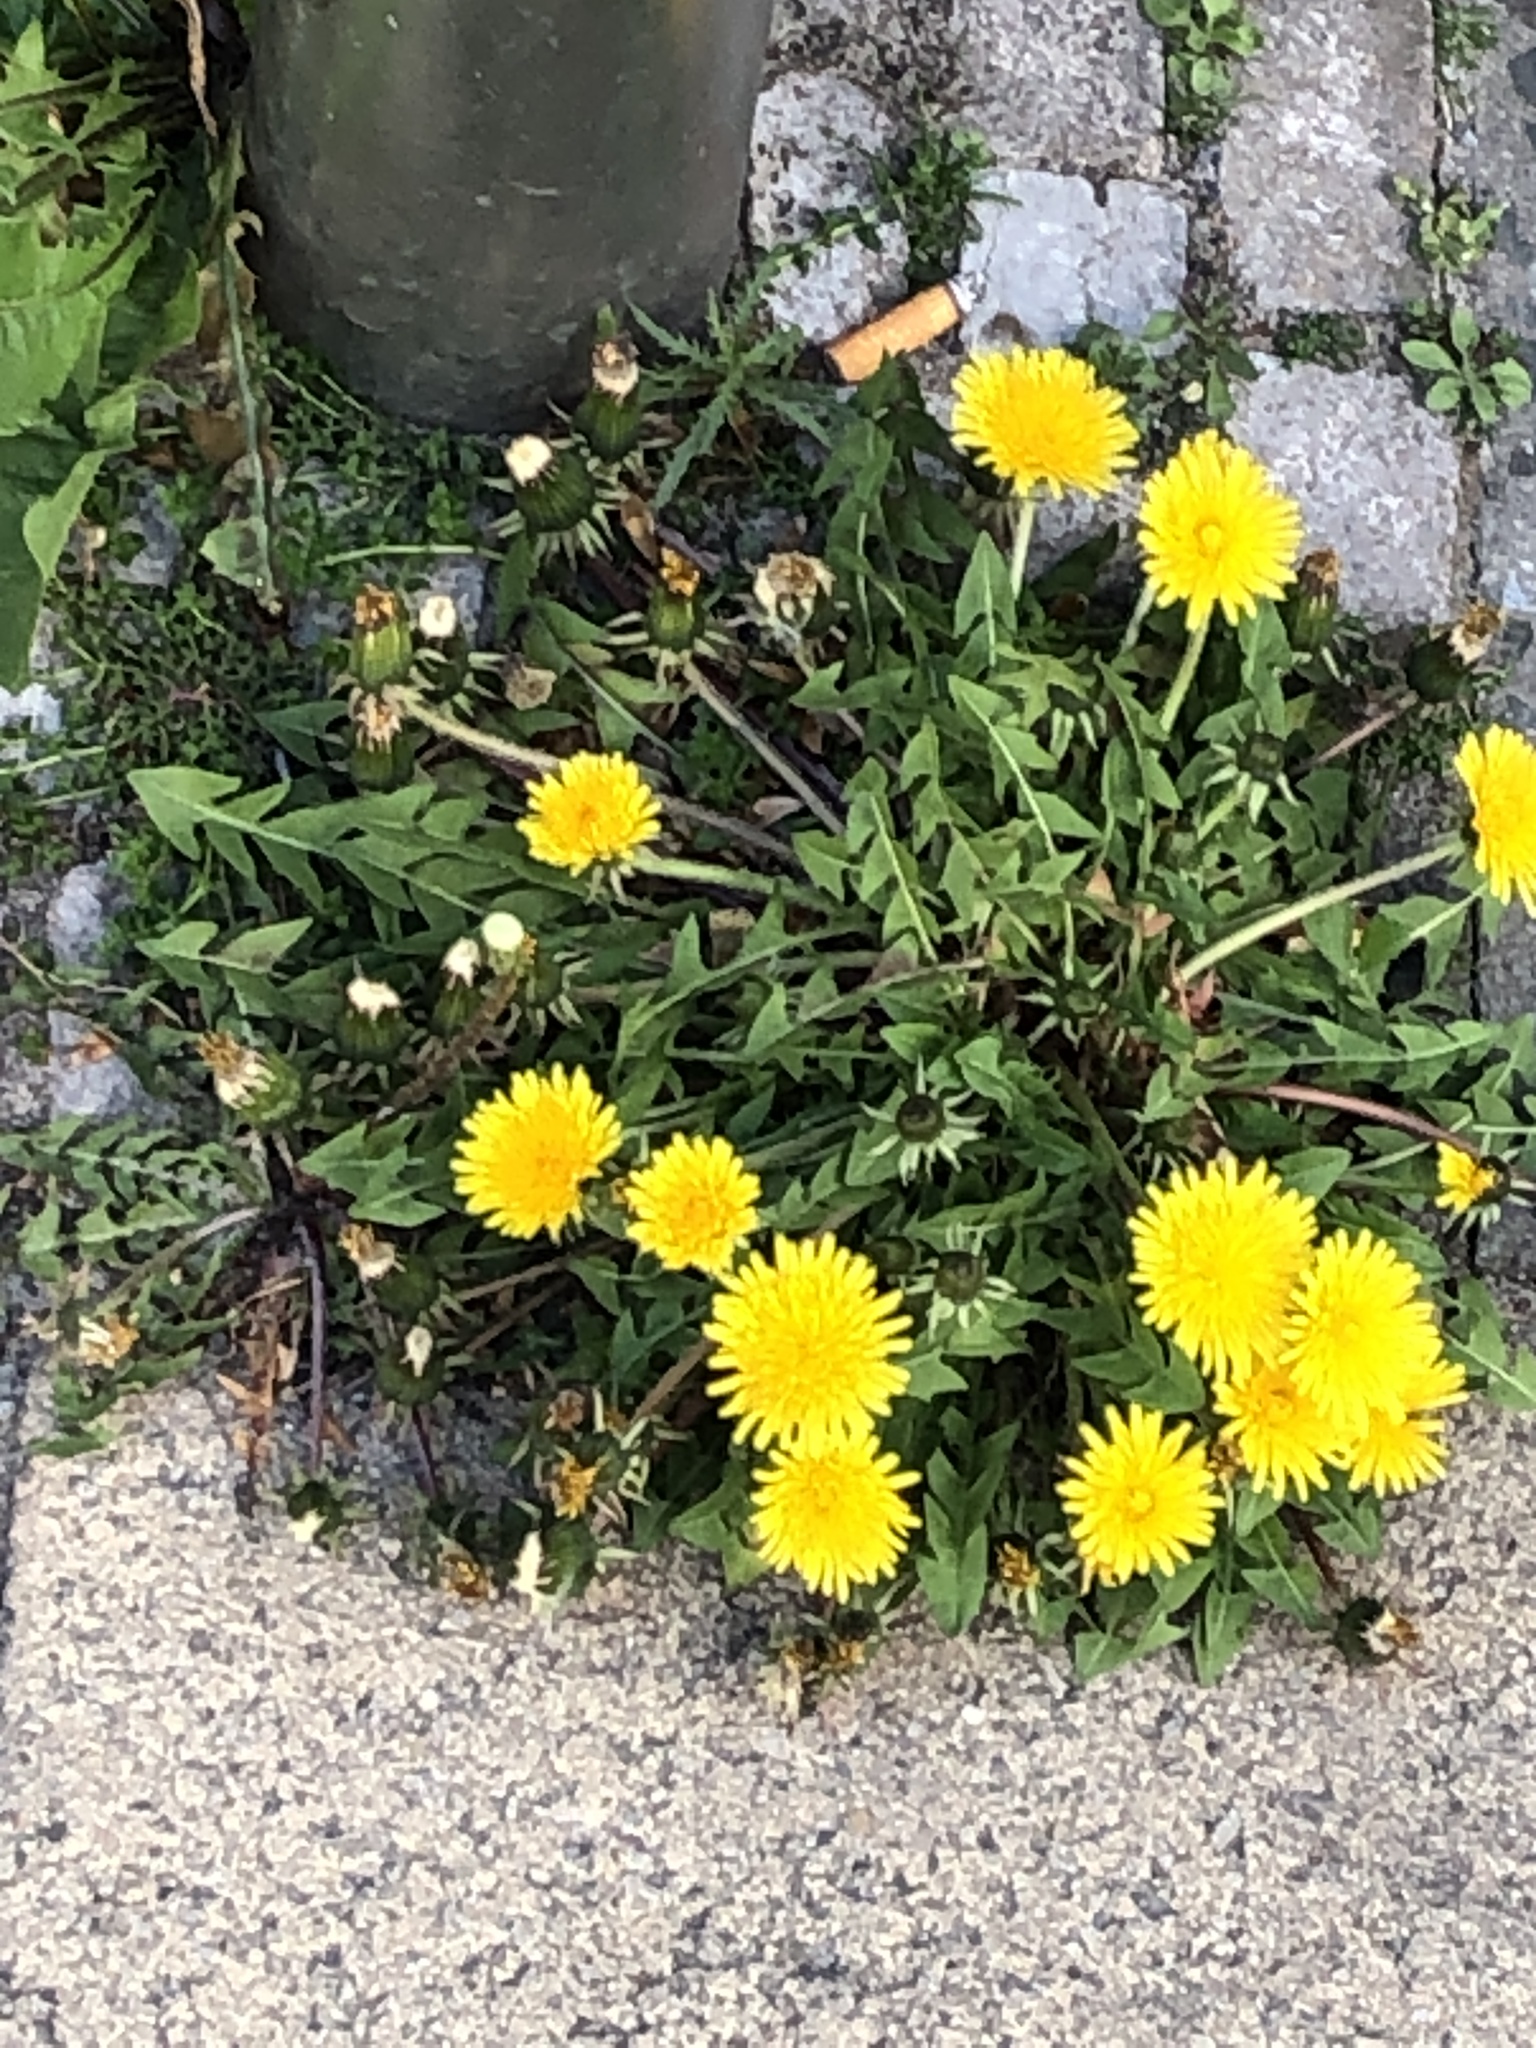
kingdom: Plantae
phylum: Tracheophyta
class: Magnoliopsida
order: Asterales
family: Asteraceae
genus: Taraxacum
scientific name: Taraxacum officinale
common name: Common dandelion
